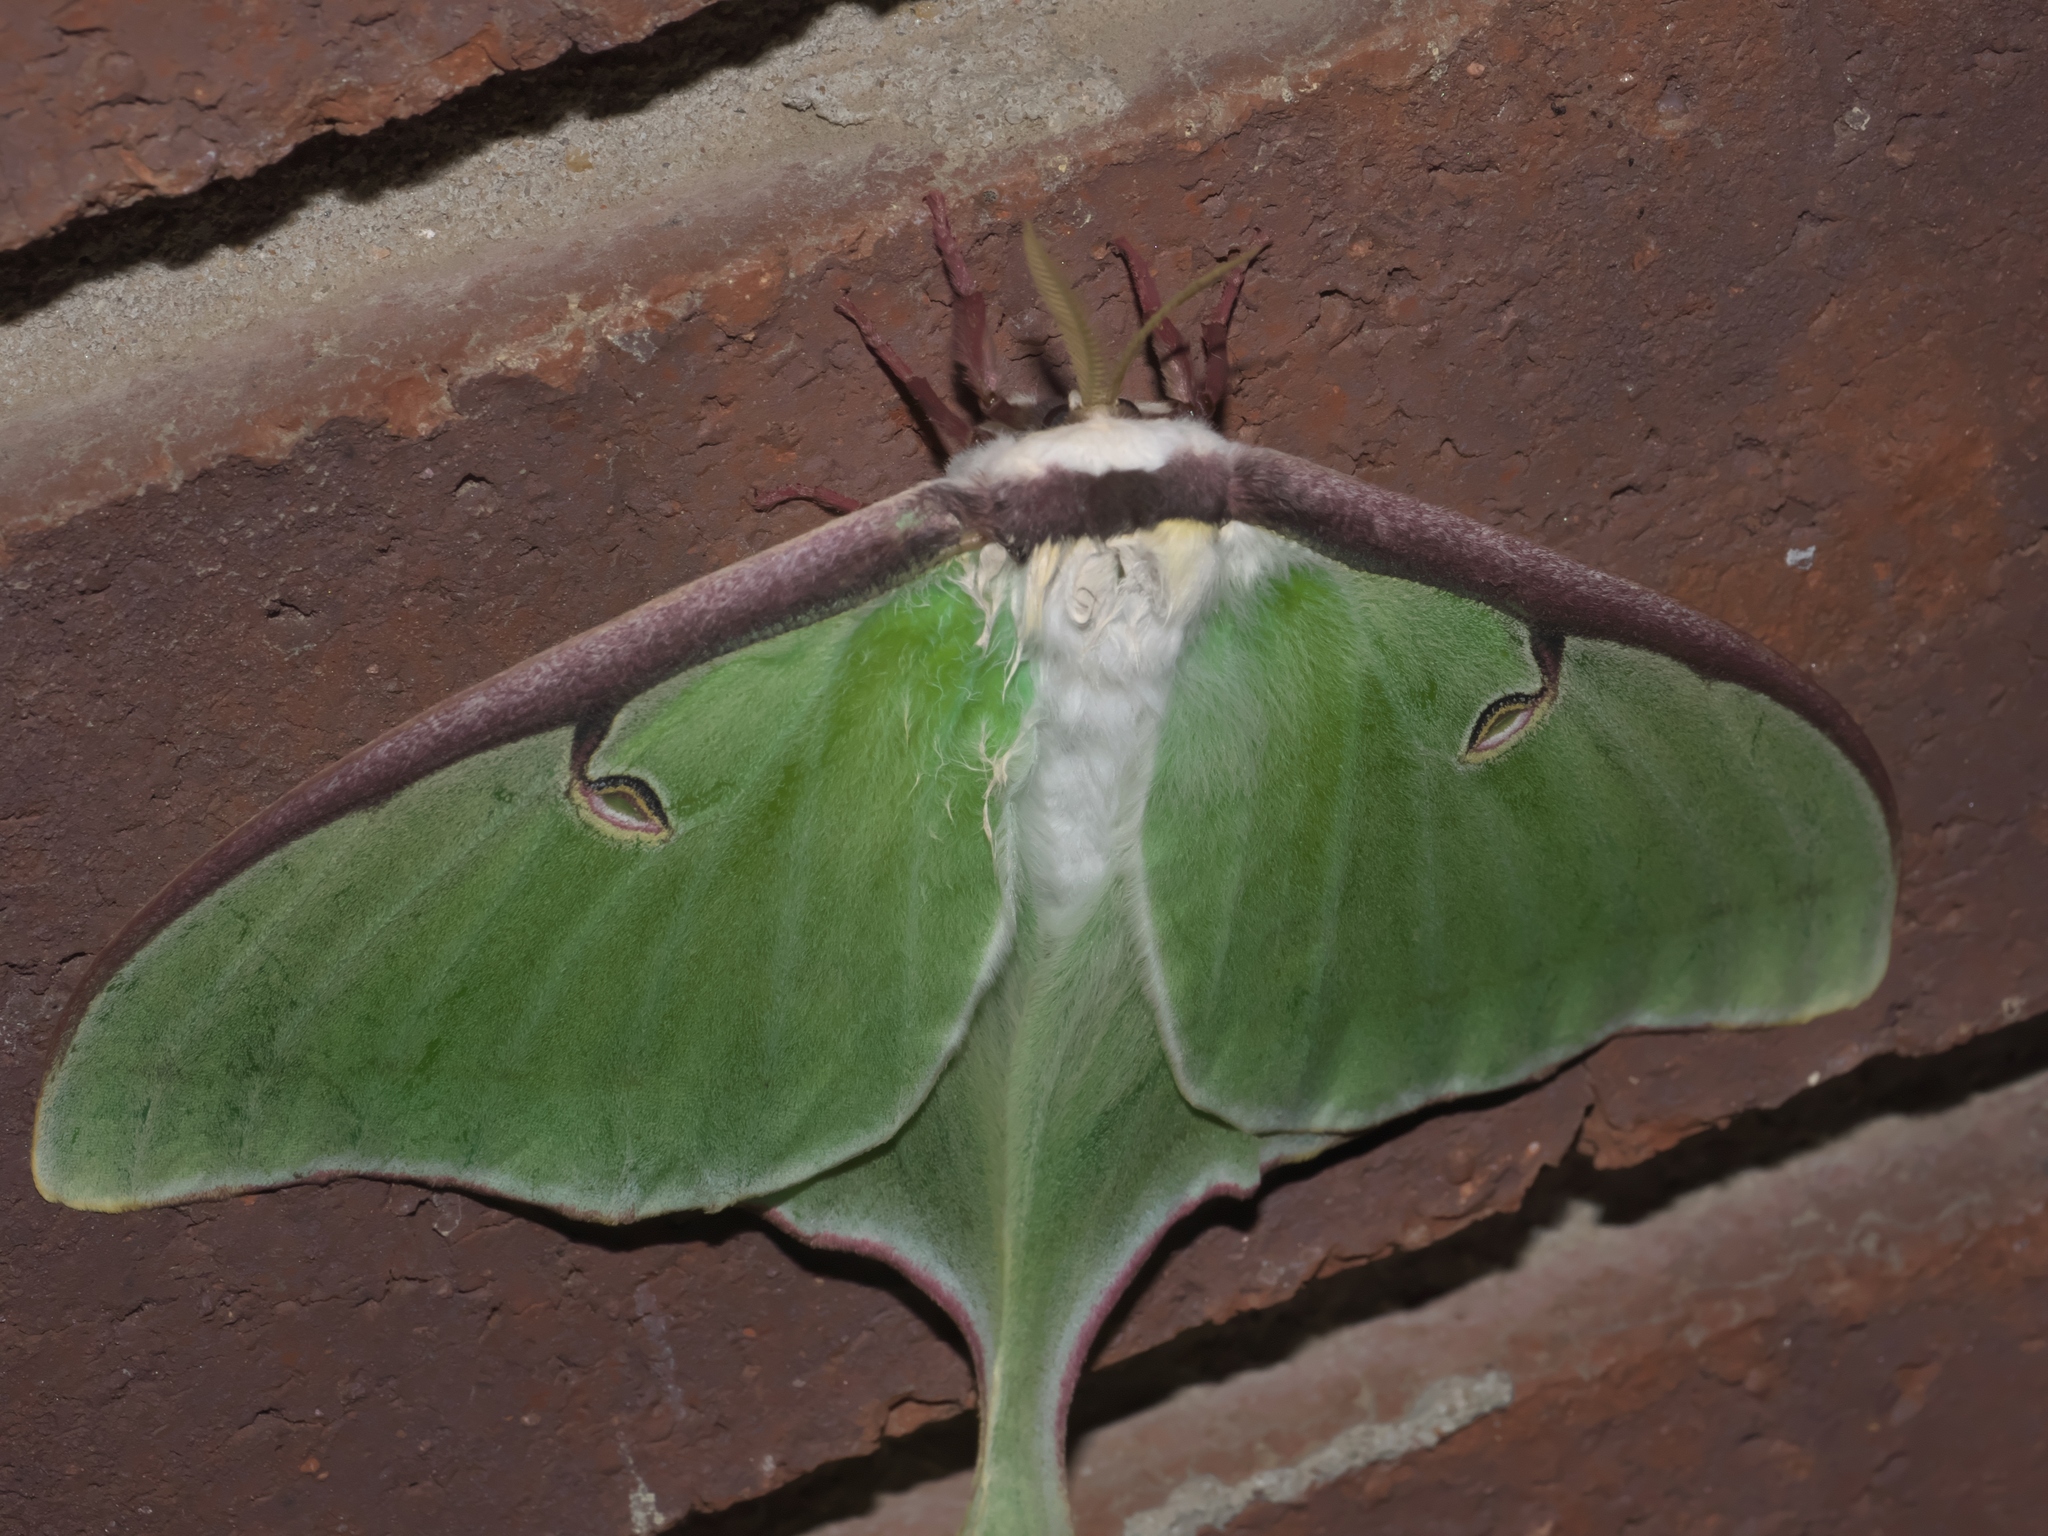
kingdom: Animalia
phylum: Arthropoda
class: Insecta
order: Lepidoptera
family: Saturniidae
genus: Actias
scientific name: Actias luna
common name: Luna moth
